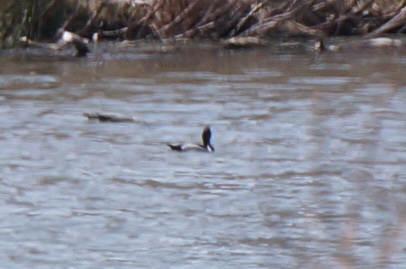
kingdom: Animalia
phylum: Chordata
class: Aves
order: Anseriformes
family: Anatidae
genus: Aythya
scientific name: Aythya collaris
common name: Ring-necked duck
